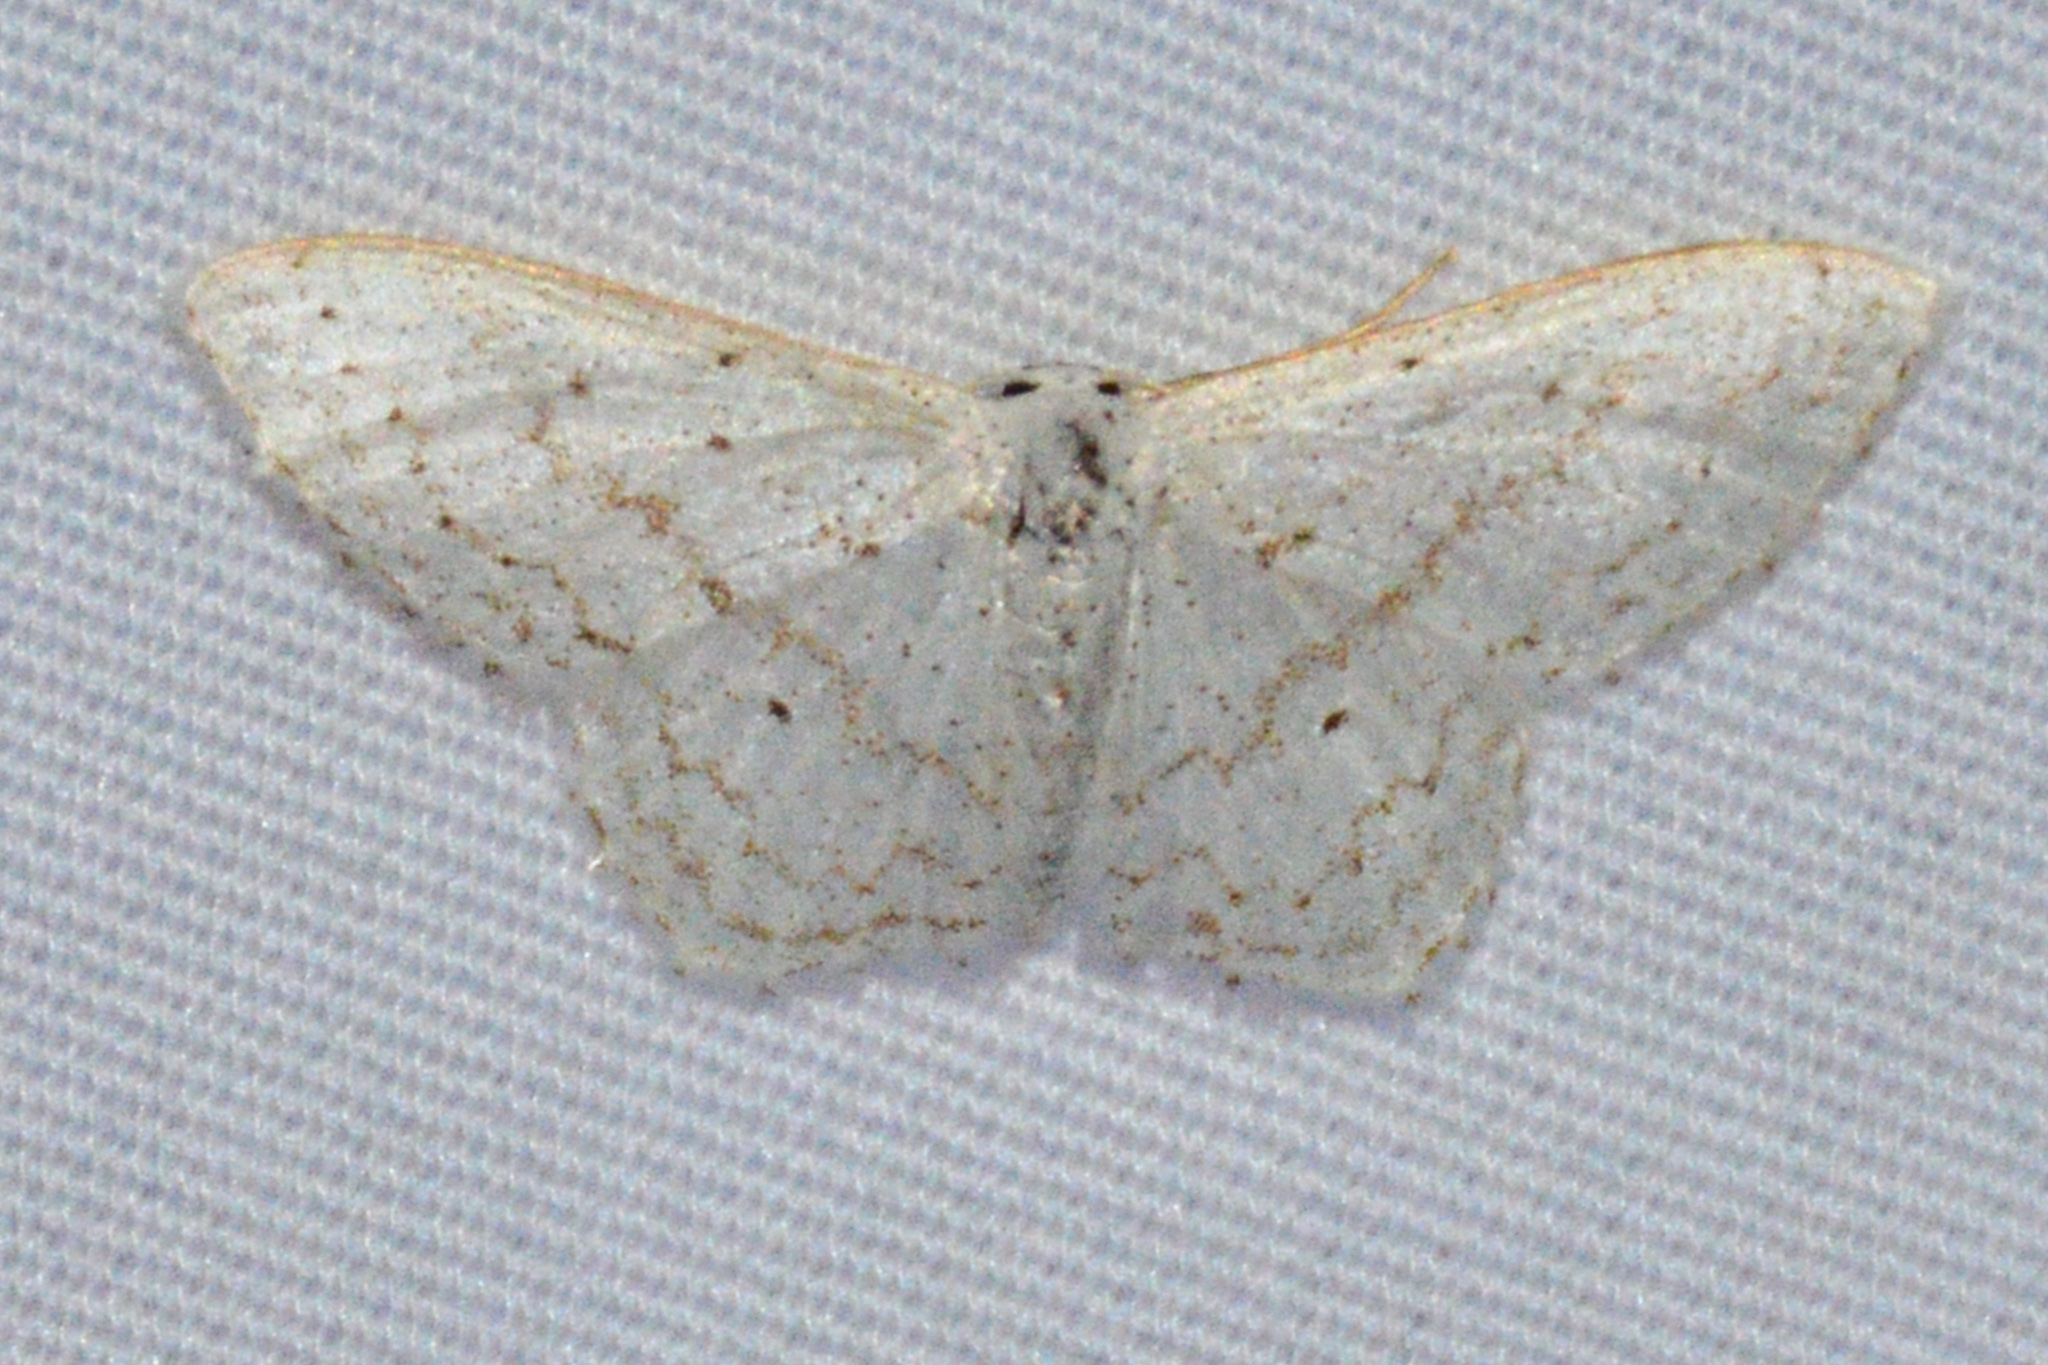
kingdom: Animalia
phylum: Arthropoda
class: Insecta
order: Lepidoptera
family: Geometridae
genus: Idaea
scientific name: Idaea tacturata
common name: Dot-lined wave
